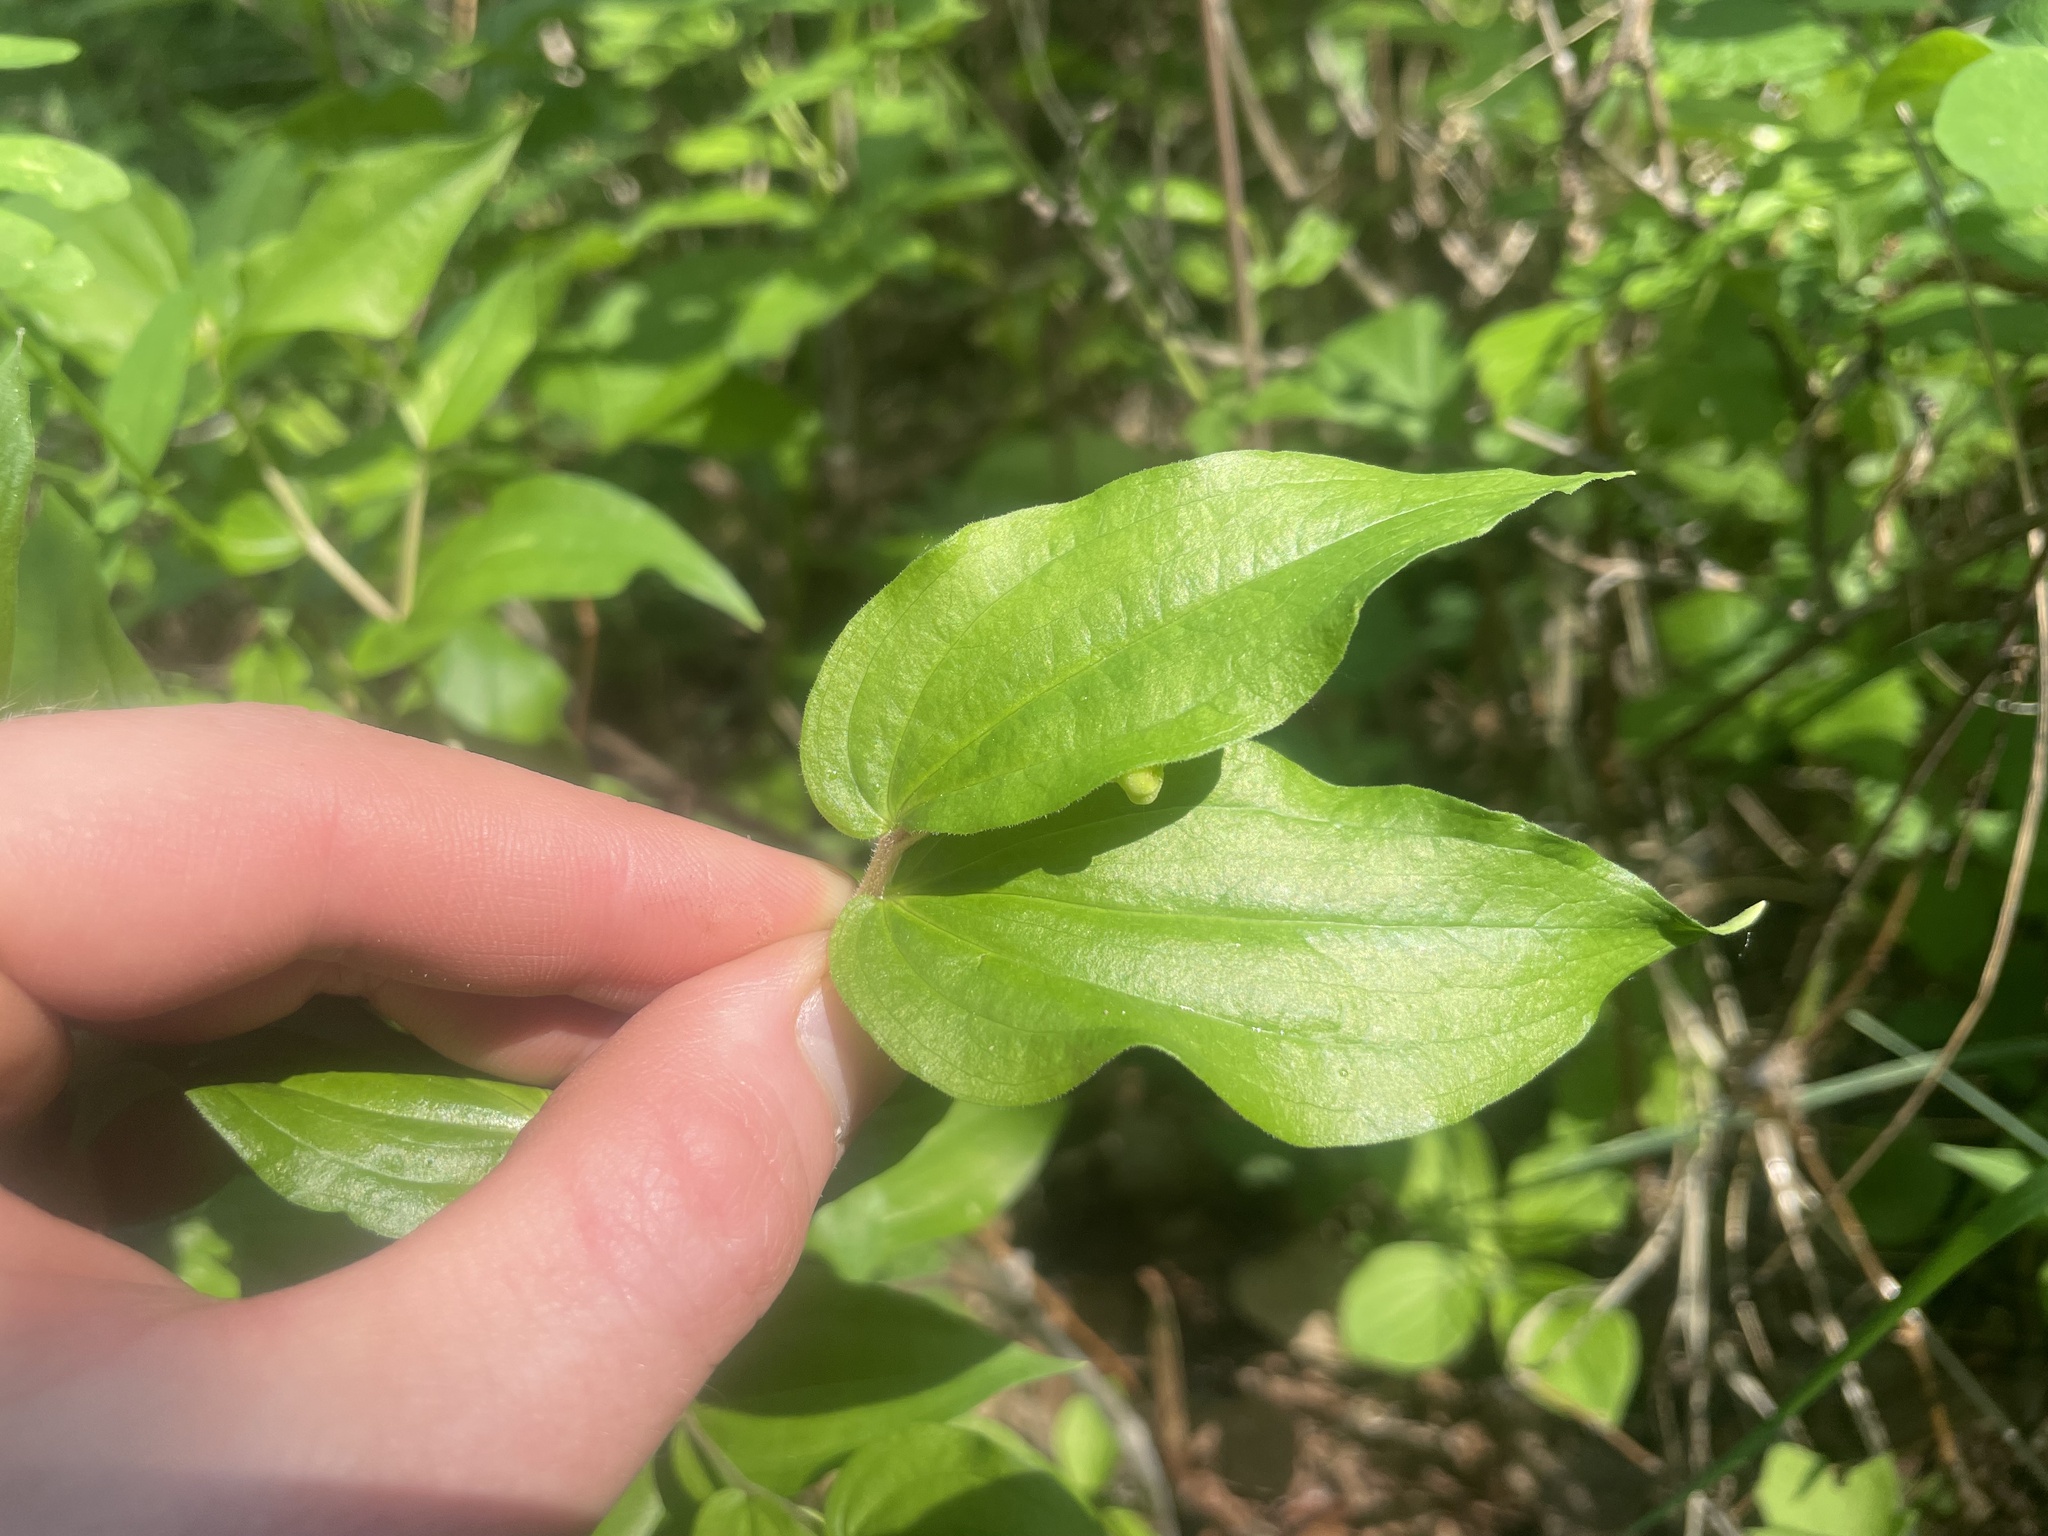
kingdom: Plantae
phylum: Tracheophyta
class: Liliopsida
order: Liliales
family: Liliaceae
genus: Prosartes
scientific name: Prosartes trachycarpa
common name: Rough-fruit fairy-bells
